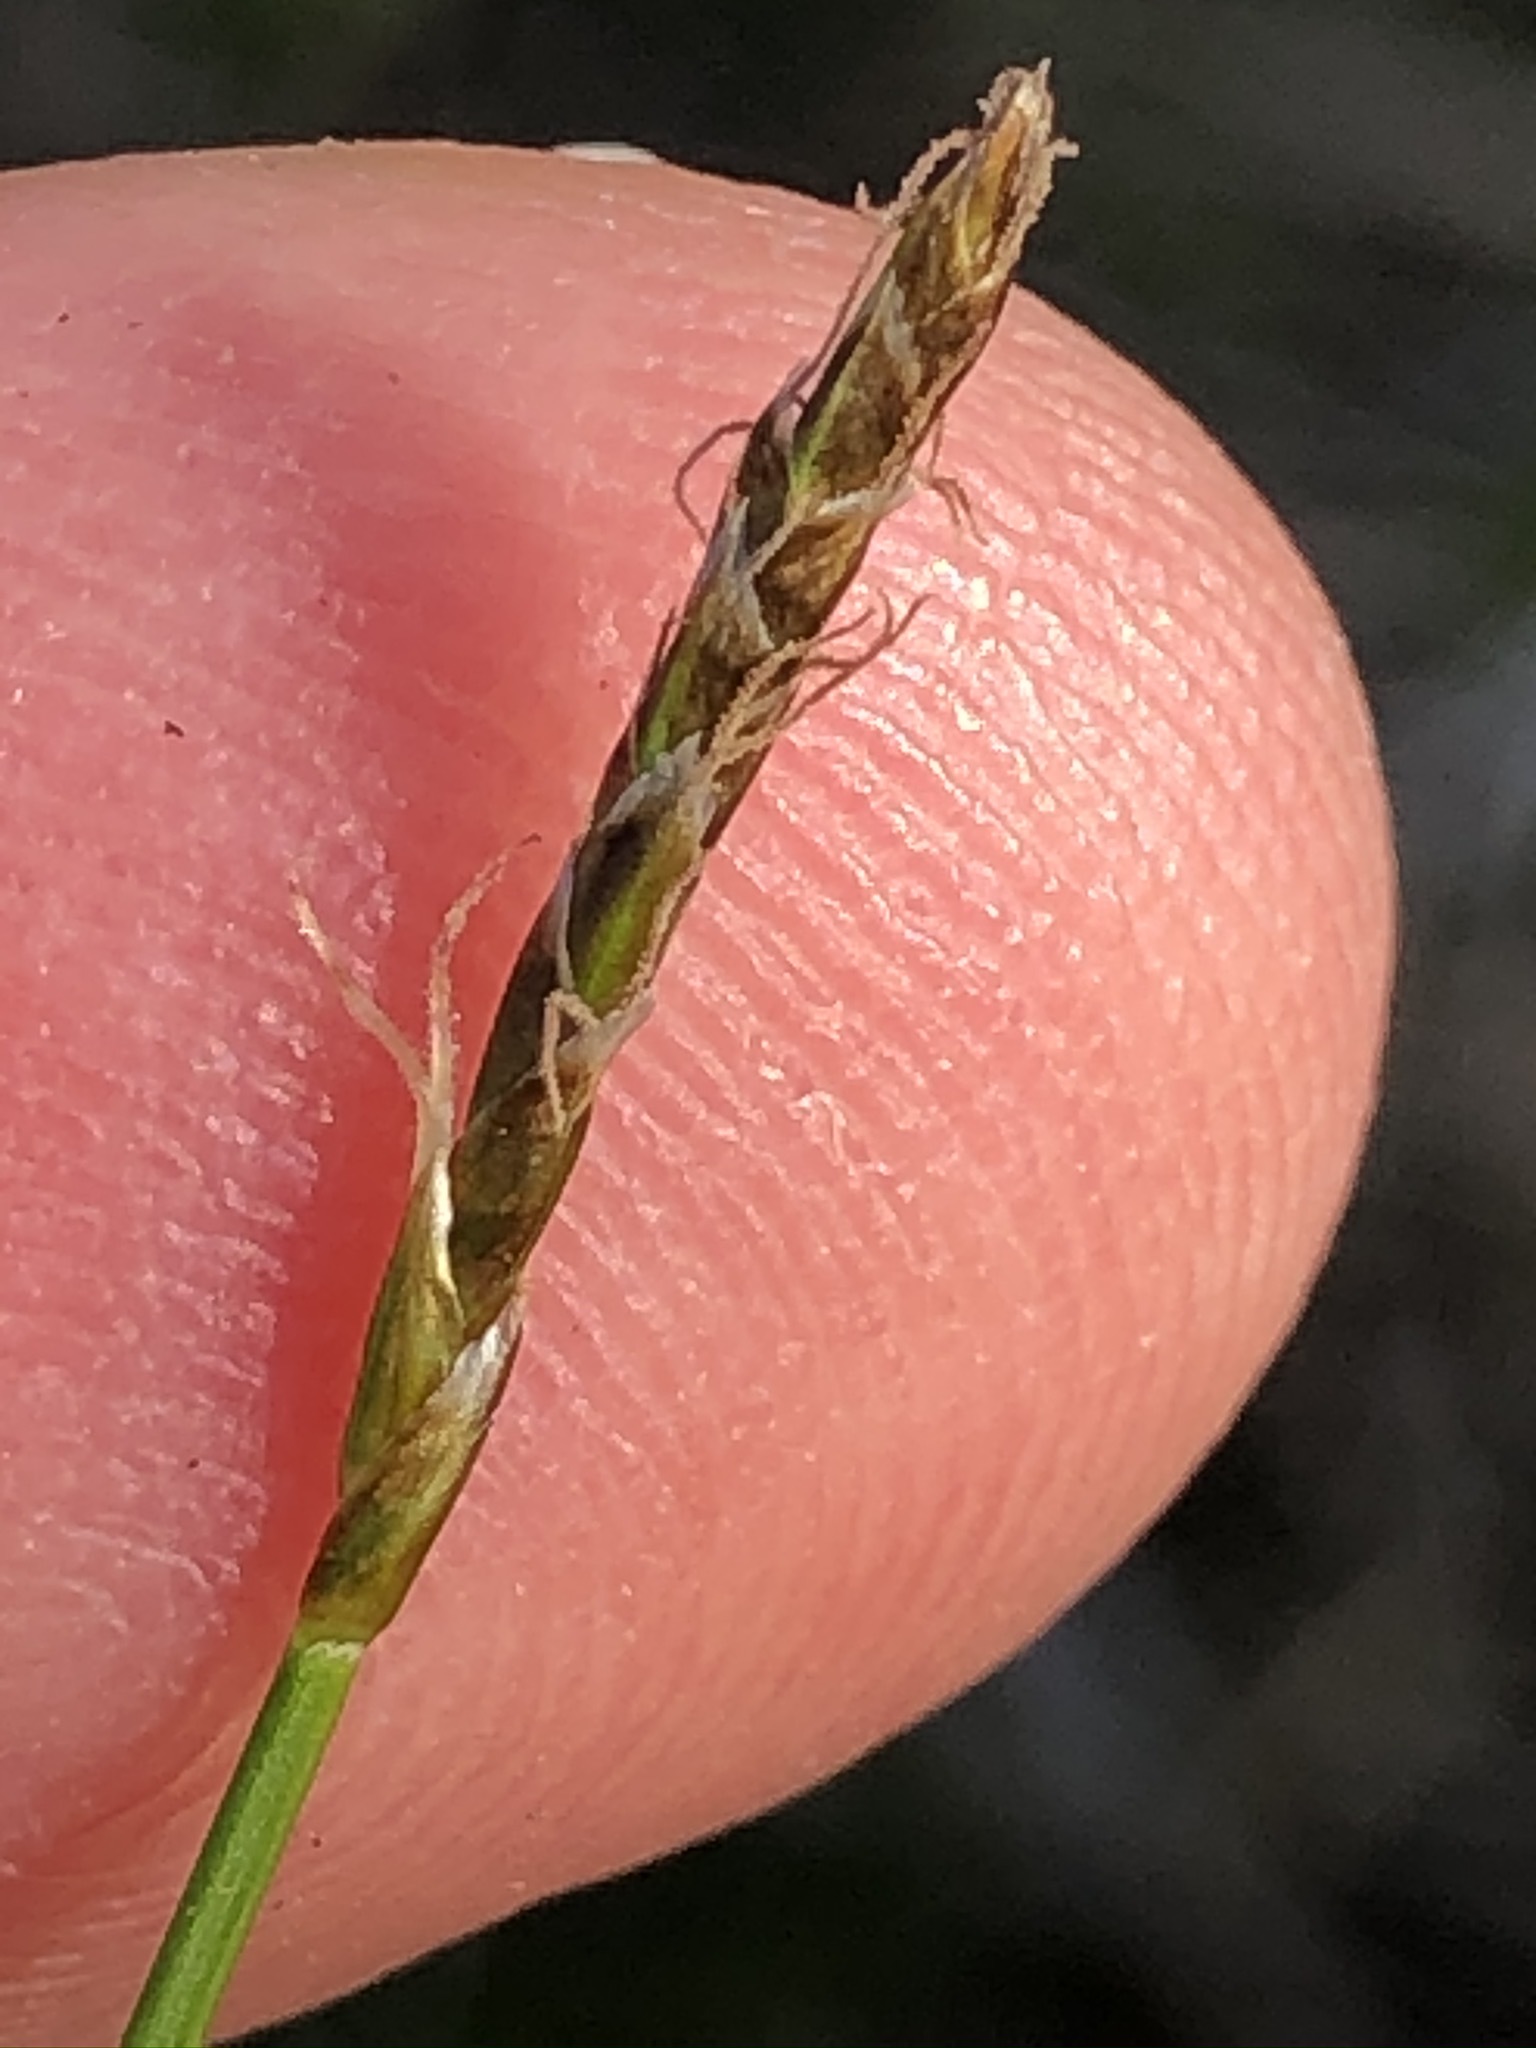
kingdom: Plantae
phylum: Tracheophyta
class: Liliopsida
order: Poales
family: Cyperaceae
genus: Carex
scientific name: Carex davalliana
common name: Davall's sedge
